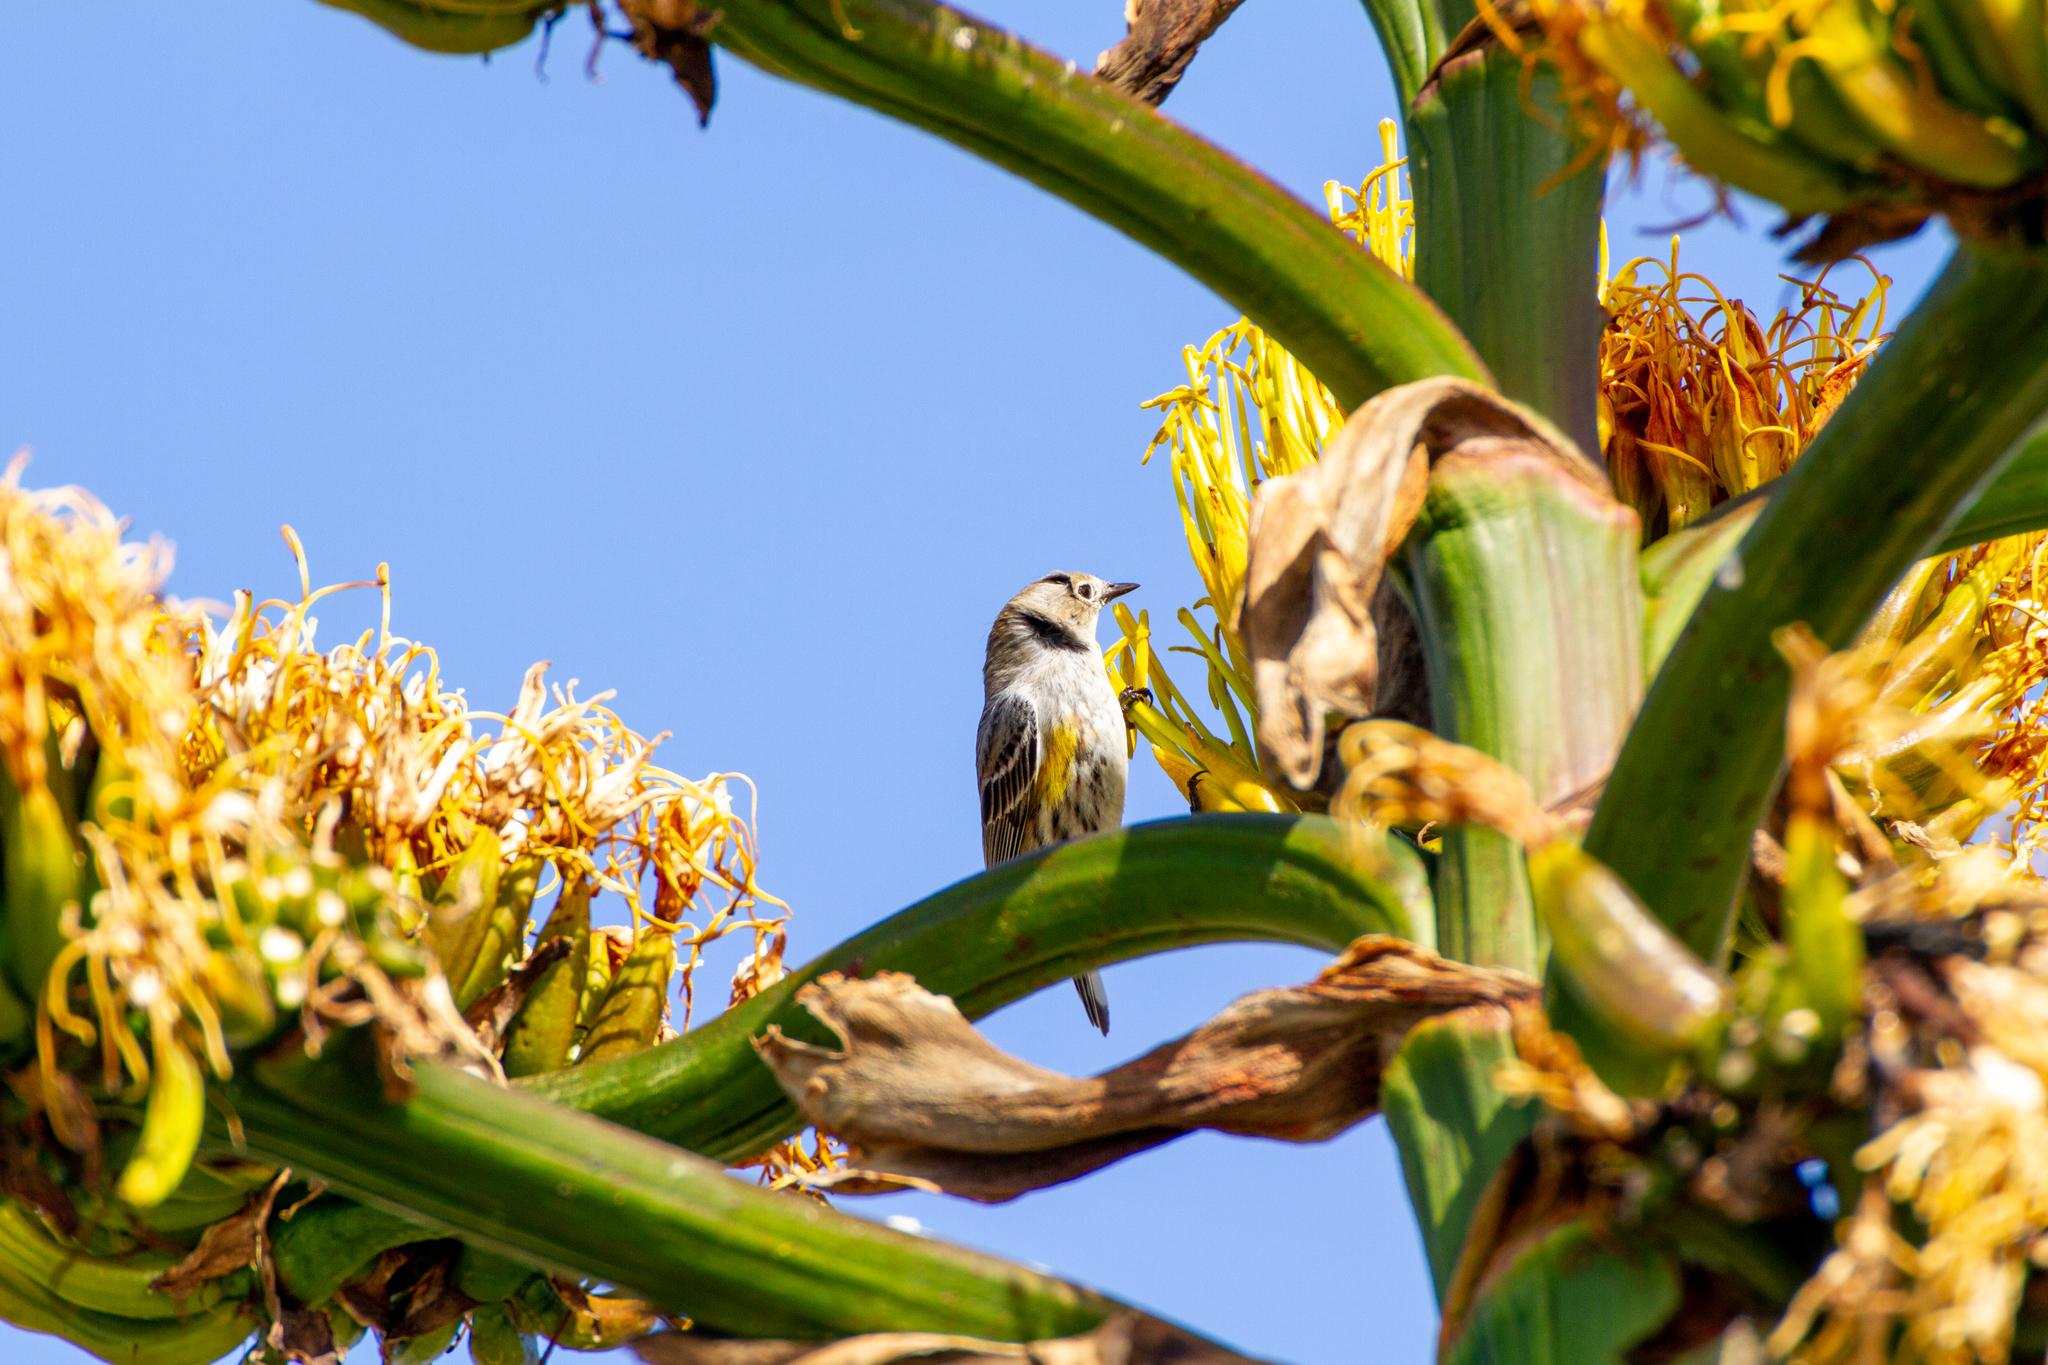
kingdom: Animalia
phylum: Chordata
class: Aves
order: Passeriformes
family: Parulidae
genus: Setophaga
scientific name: Setophaga coronata
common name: Myrtle warbler
